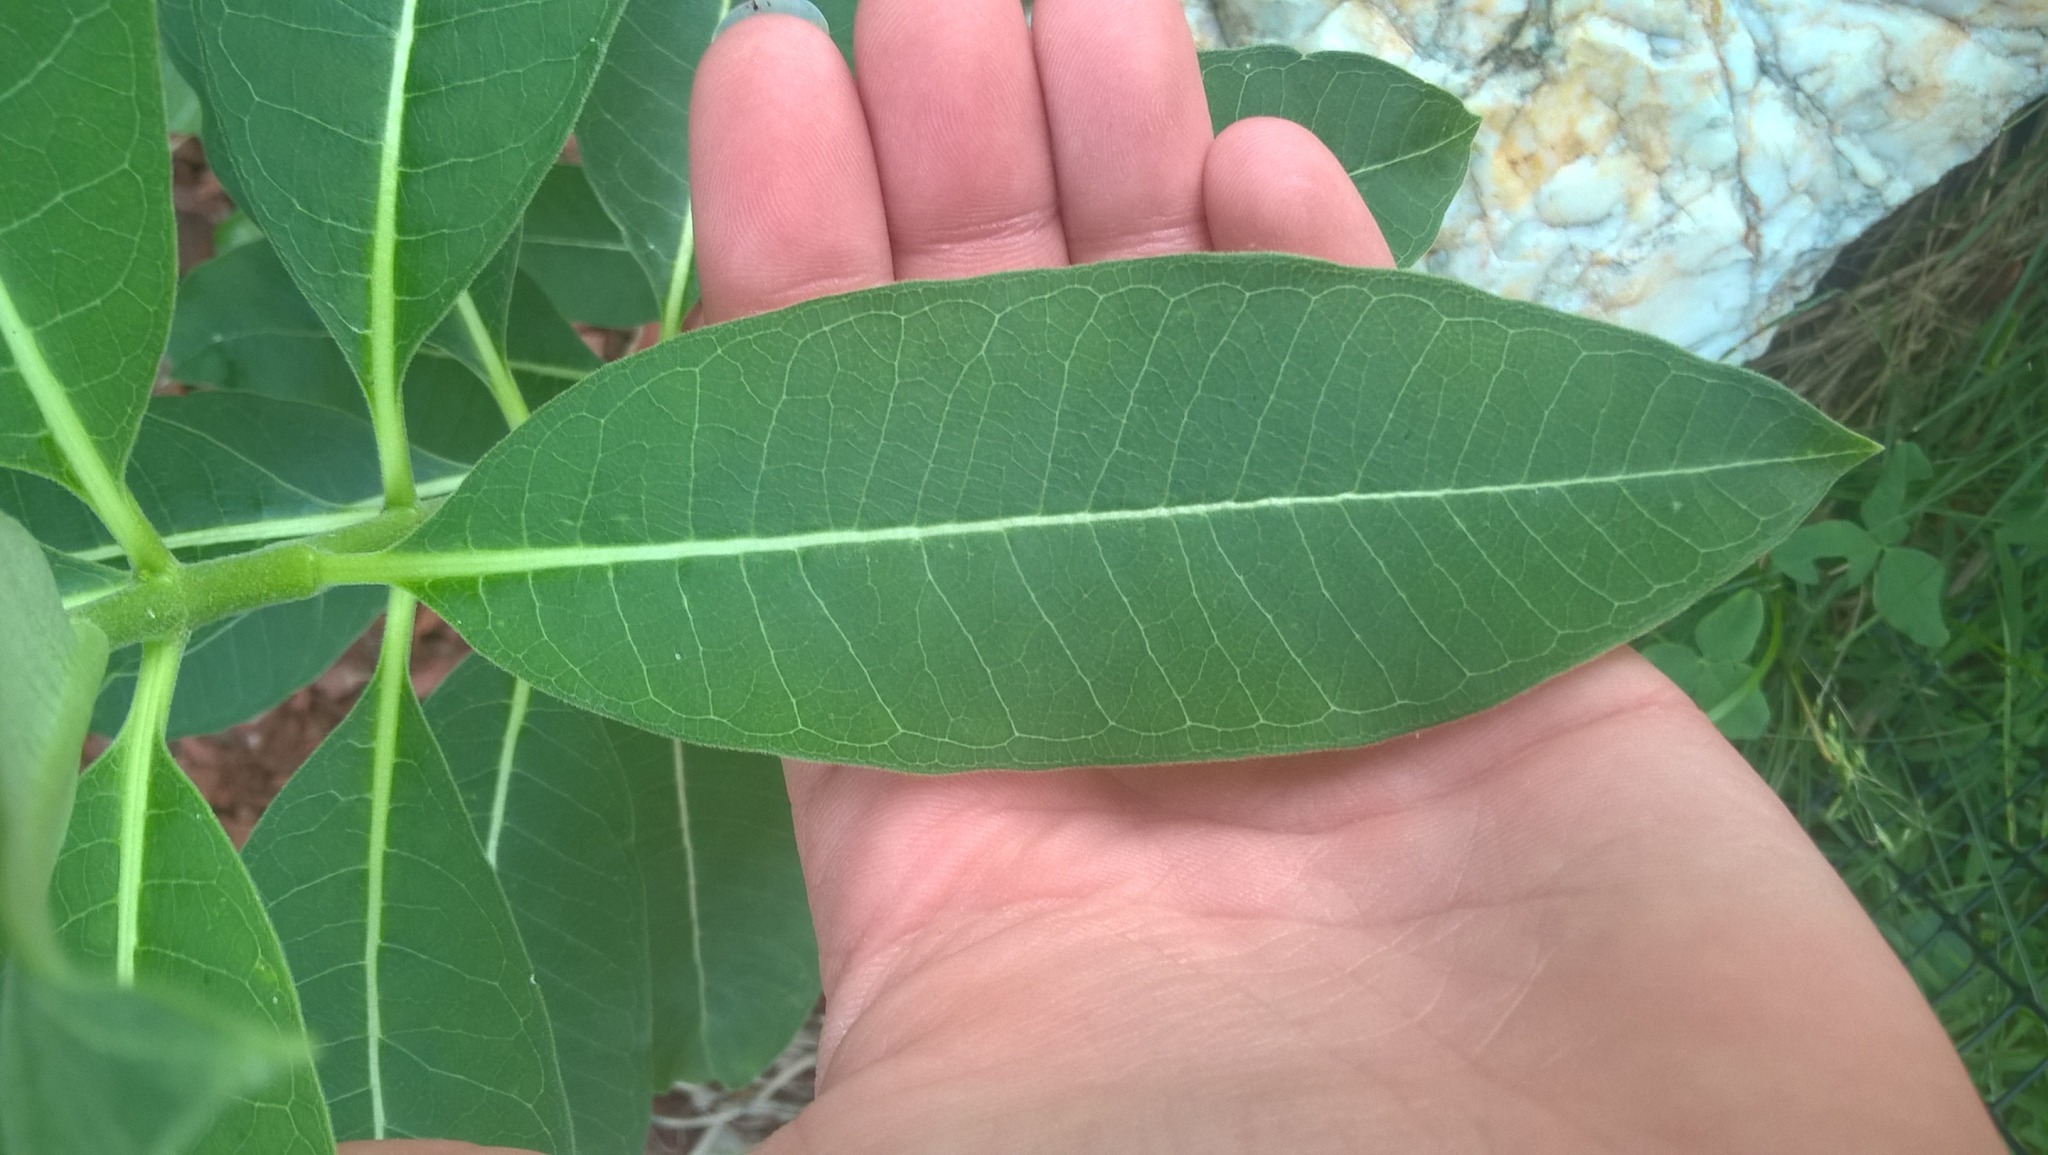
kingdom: Plantae
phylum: Tracheophyta
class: Magnoliopsida
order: Gentianales
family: Apocynaceae
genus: Asclepias
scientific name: Asclepias syriaca
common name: Common milkweed
